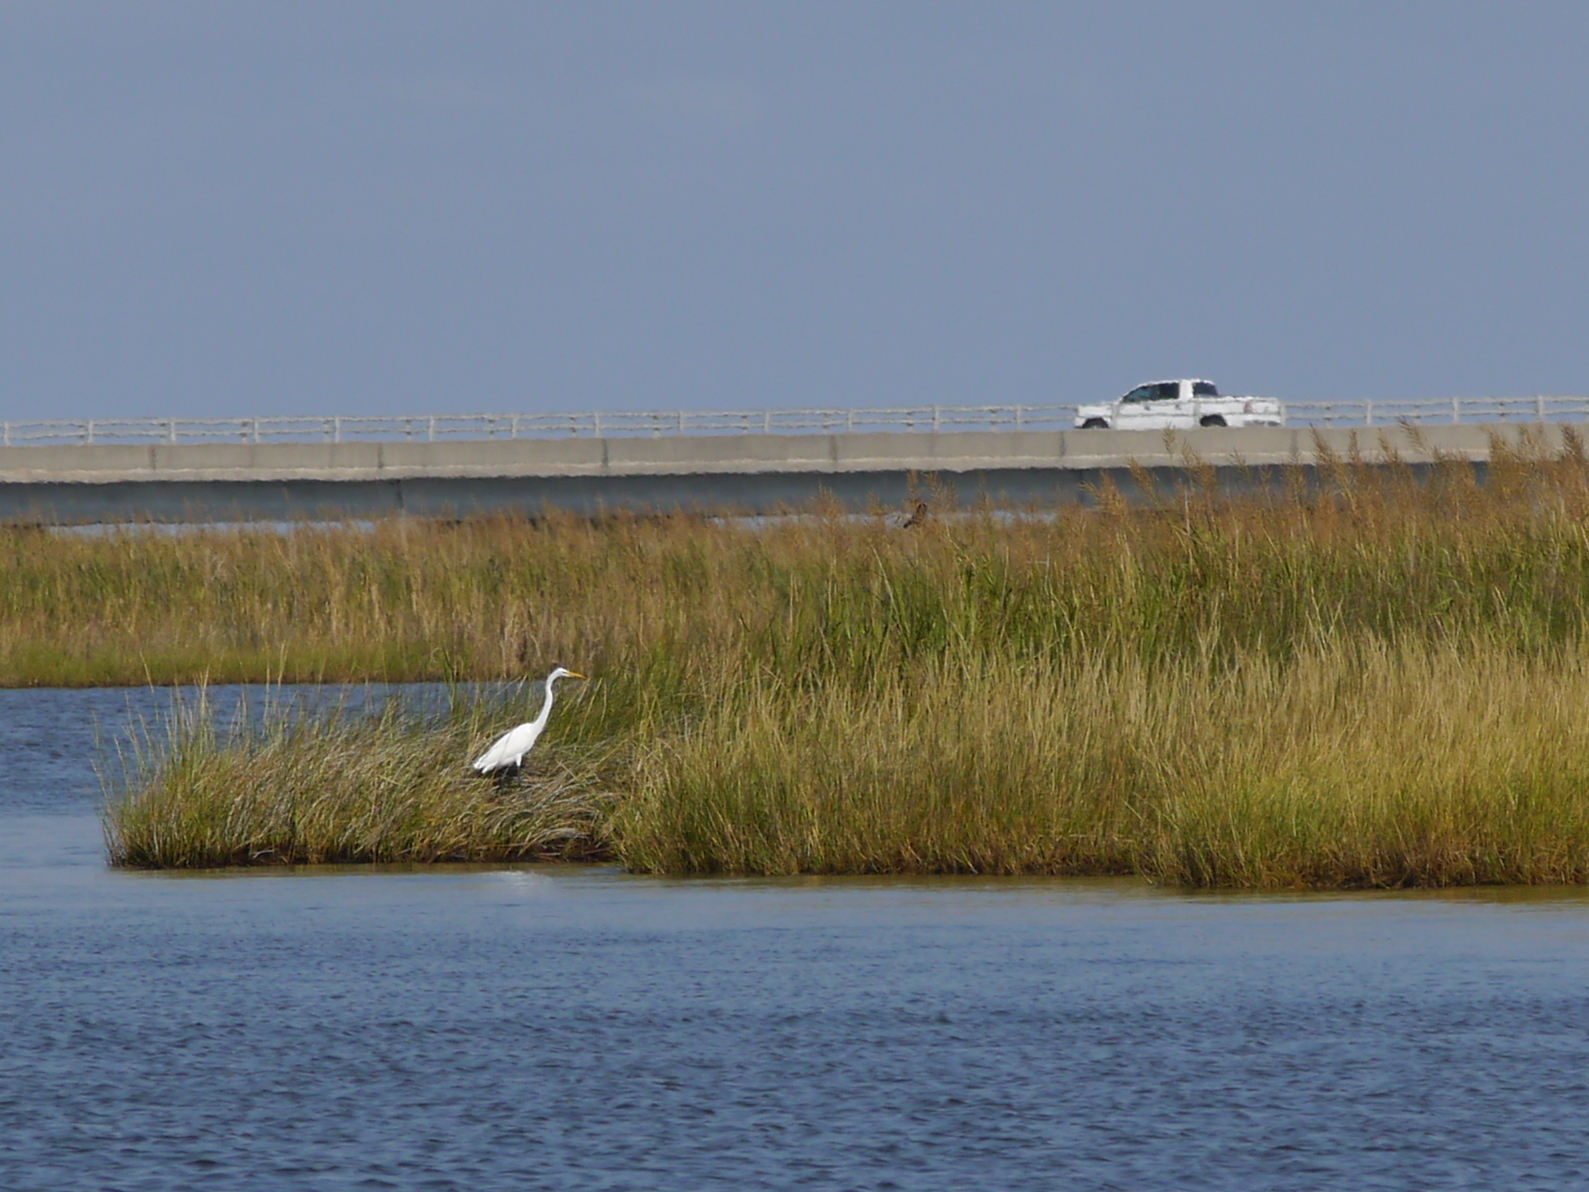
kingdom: Animalia
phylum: Chordata
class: Aves
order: Pelecaniformes
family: Ardeidae
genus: Ardea
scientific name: Ardea alba
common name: Great egret
